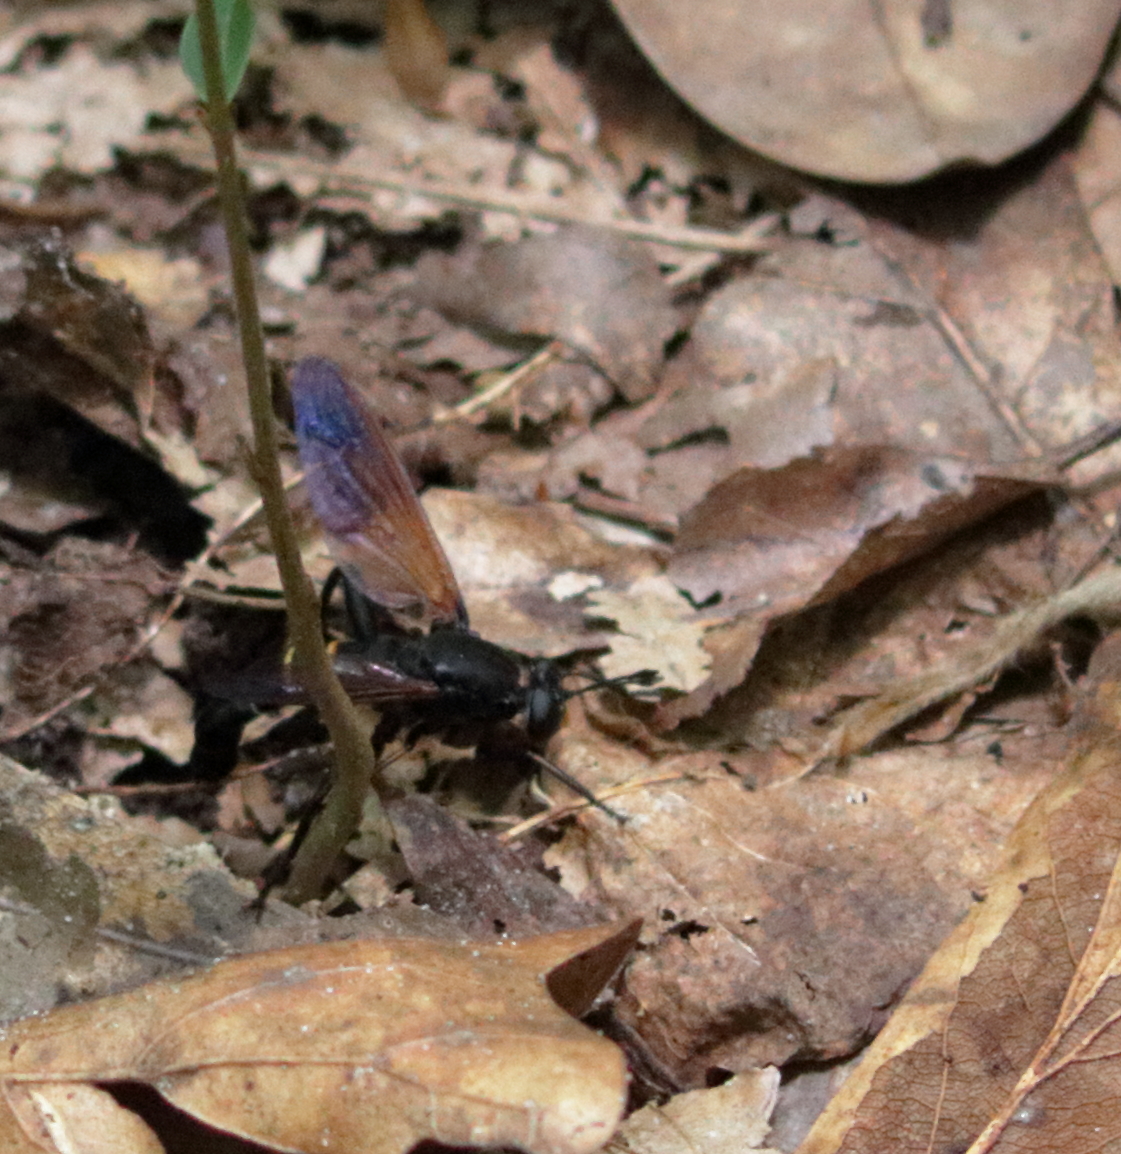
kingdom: Animalia
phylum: Arthropoda
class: Insecta
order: Diptera
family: Mydidae
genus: Mydas
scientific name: Mydas fulvifrons
